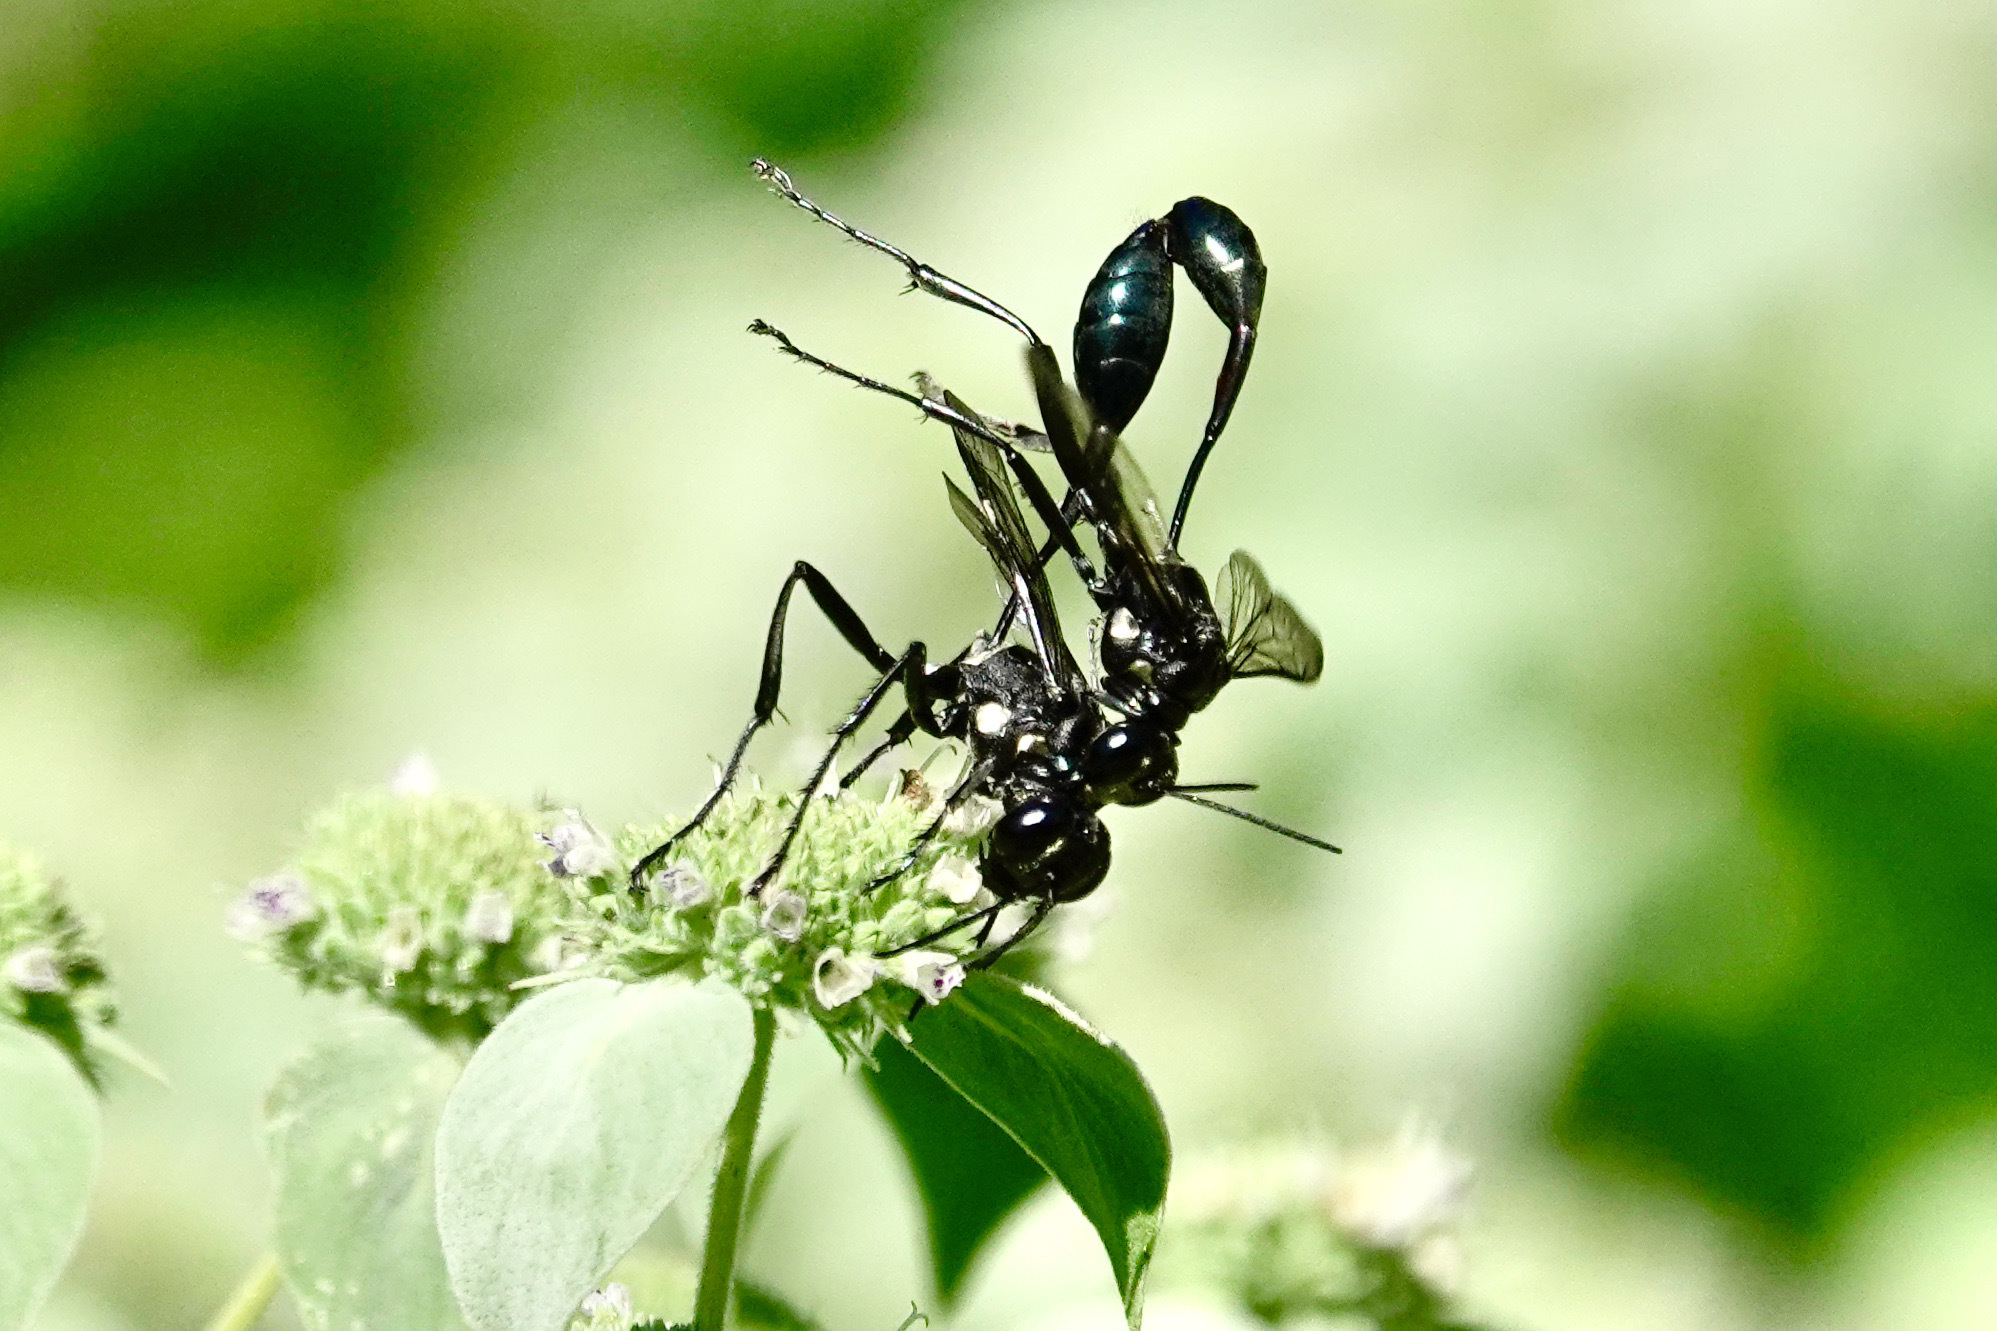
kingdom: Animalia
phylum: Arthropoda
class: Insecta
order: Hymenoptera
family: Sphecidae
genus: Eremnophila
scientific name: Eremnophila aureonotata
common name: Gold-marked thread-waisted wasp
